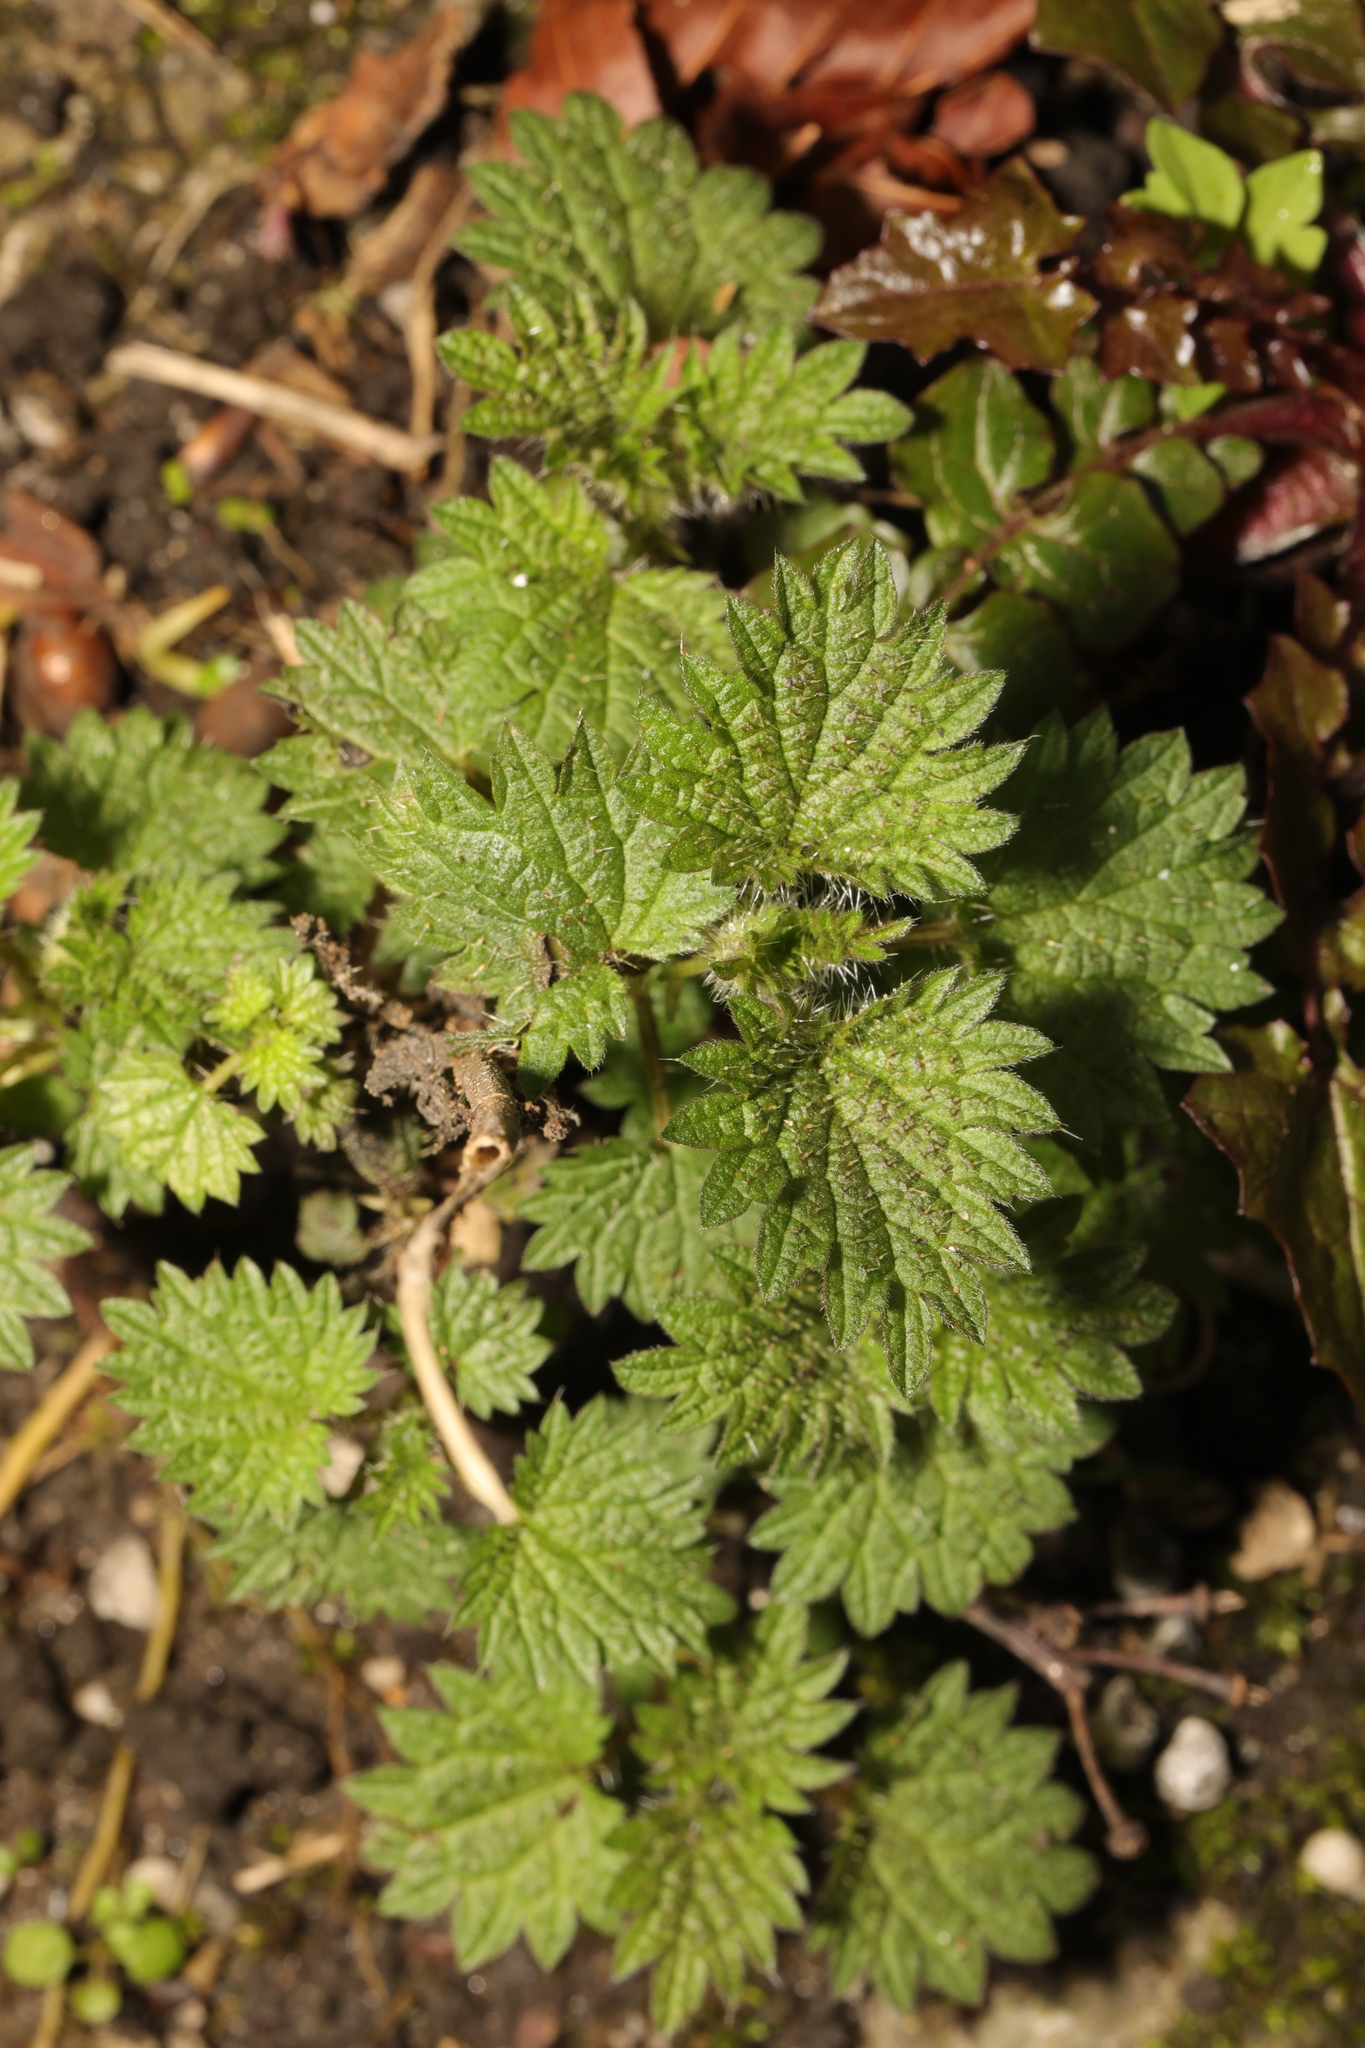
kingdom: Plantae
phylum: Tracheophyta
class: Magnoliopsida
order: Rosales
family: Urticaceae
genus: Urtica
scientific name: Urtica dioica
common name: Common nettle
